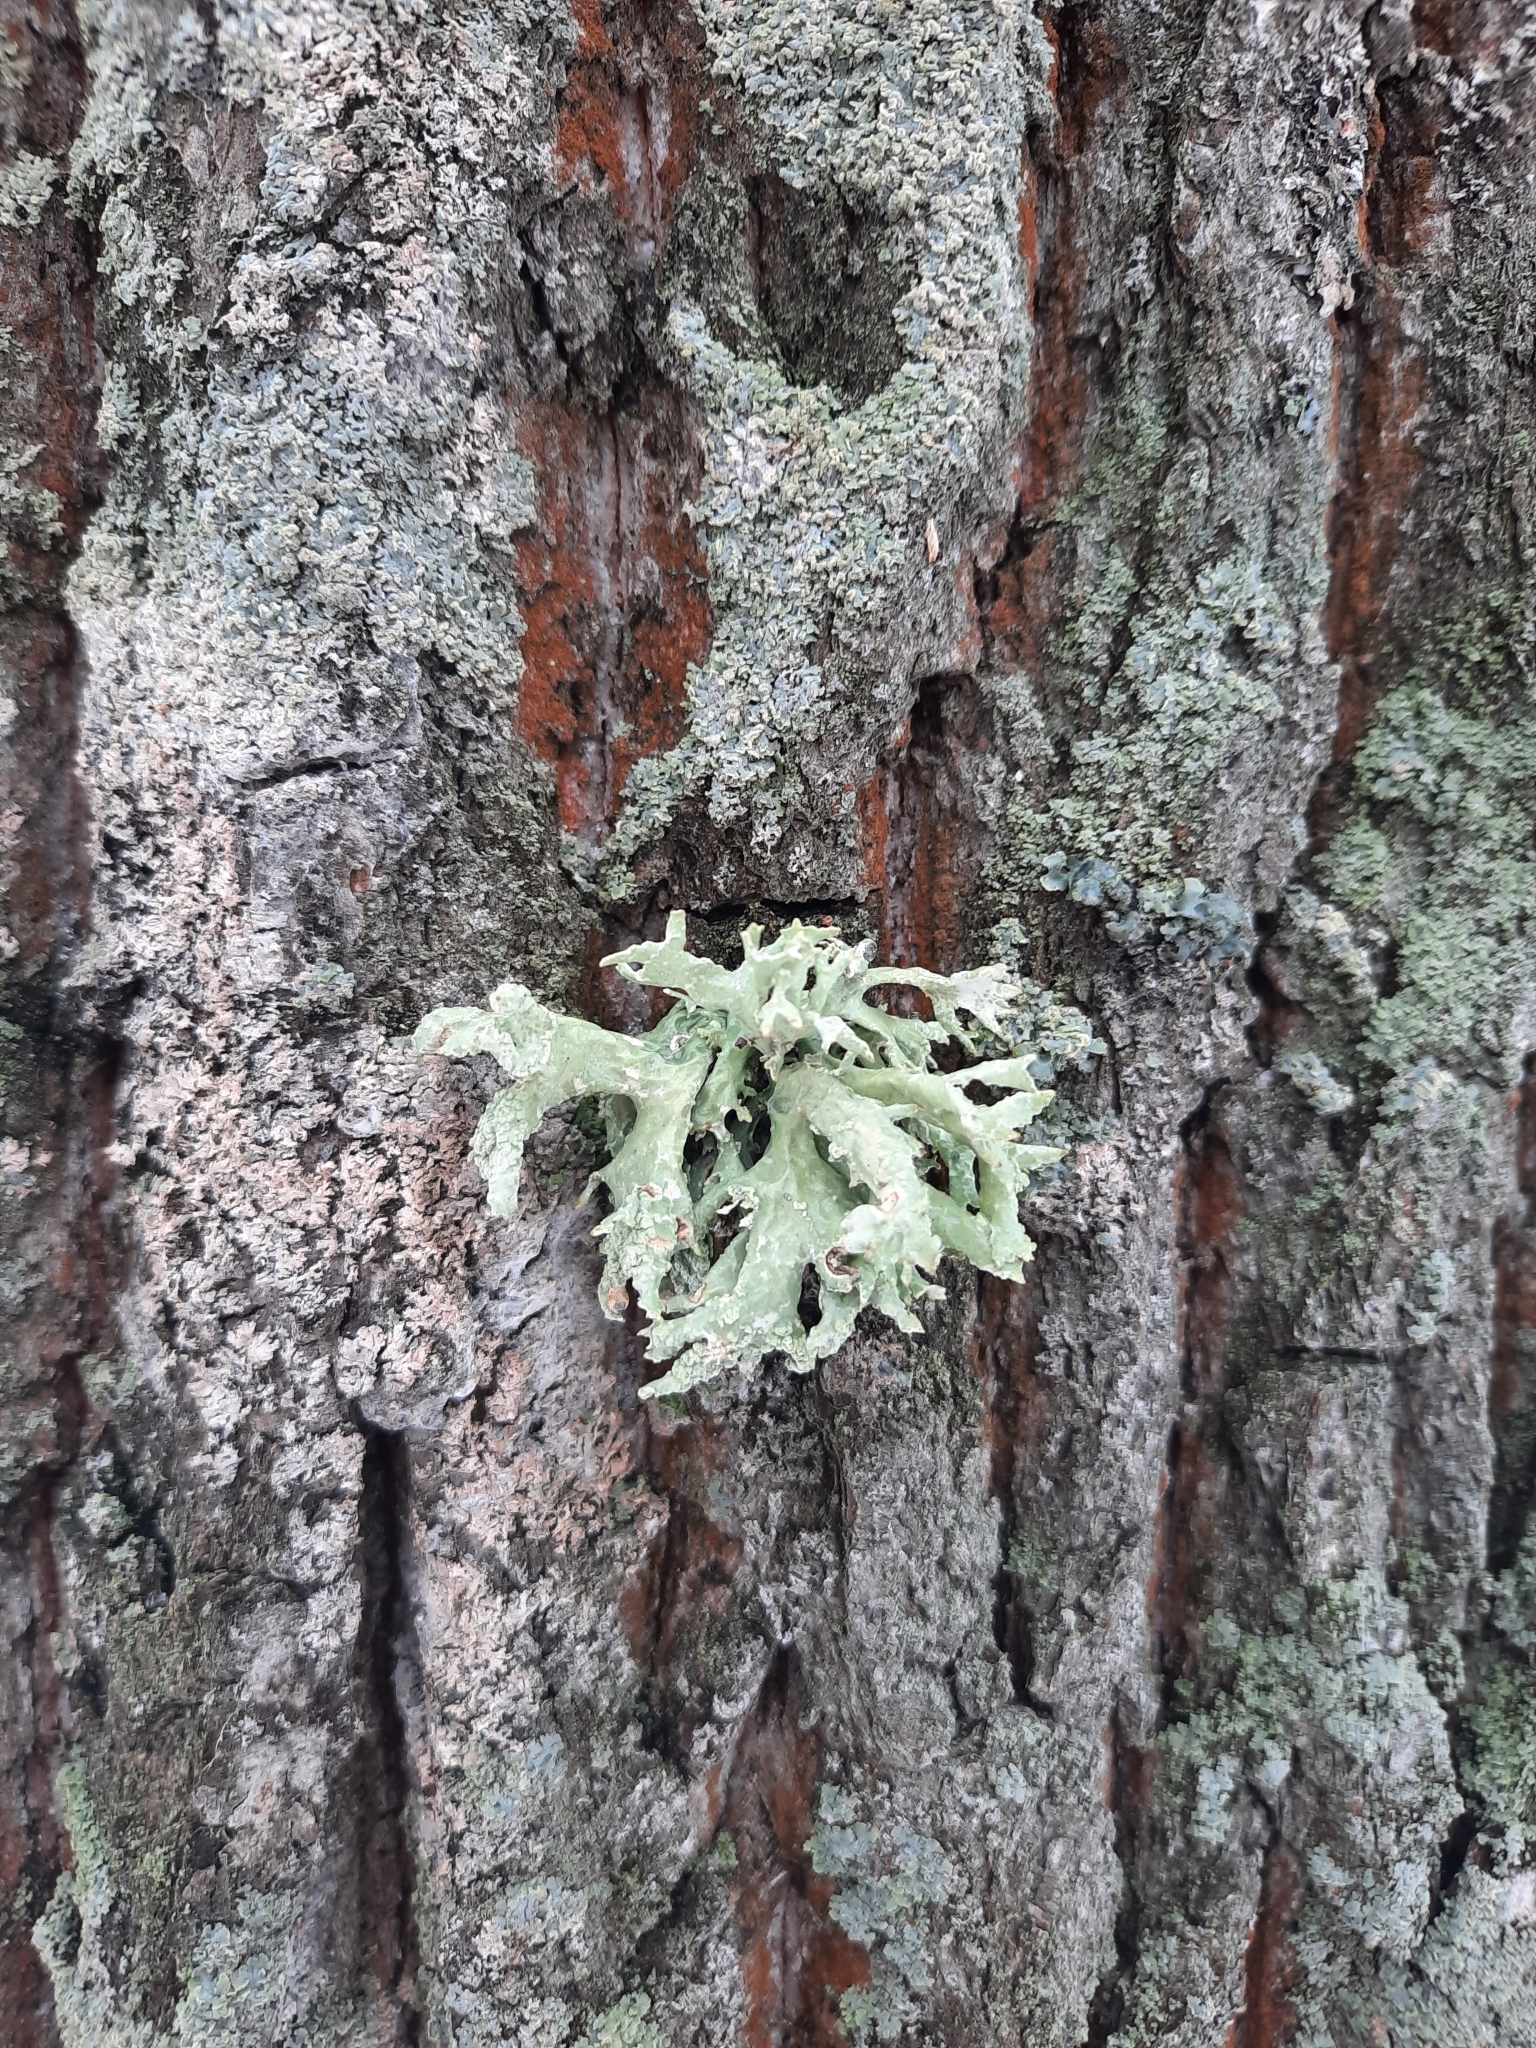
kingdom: Fungi
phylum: Ascomycota
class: Lecanoromycetes
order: Lecanorales
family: Parmeliaceae
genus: Evernia
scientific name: Evernia prunastri
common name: Oak moss
